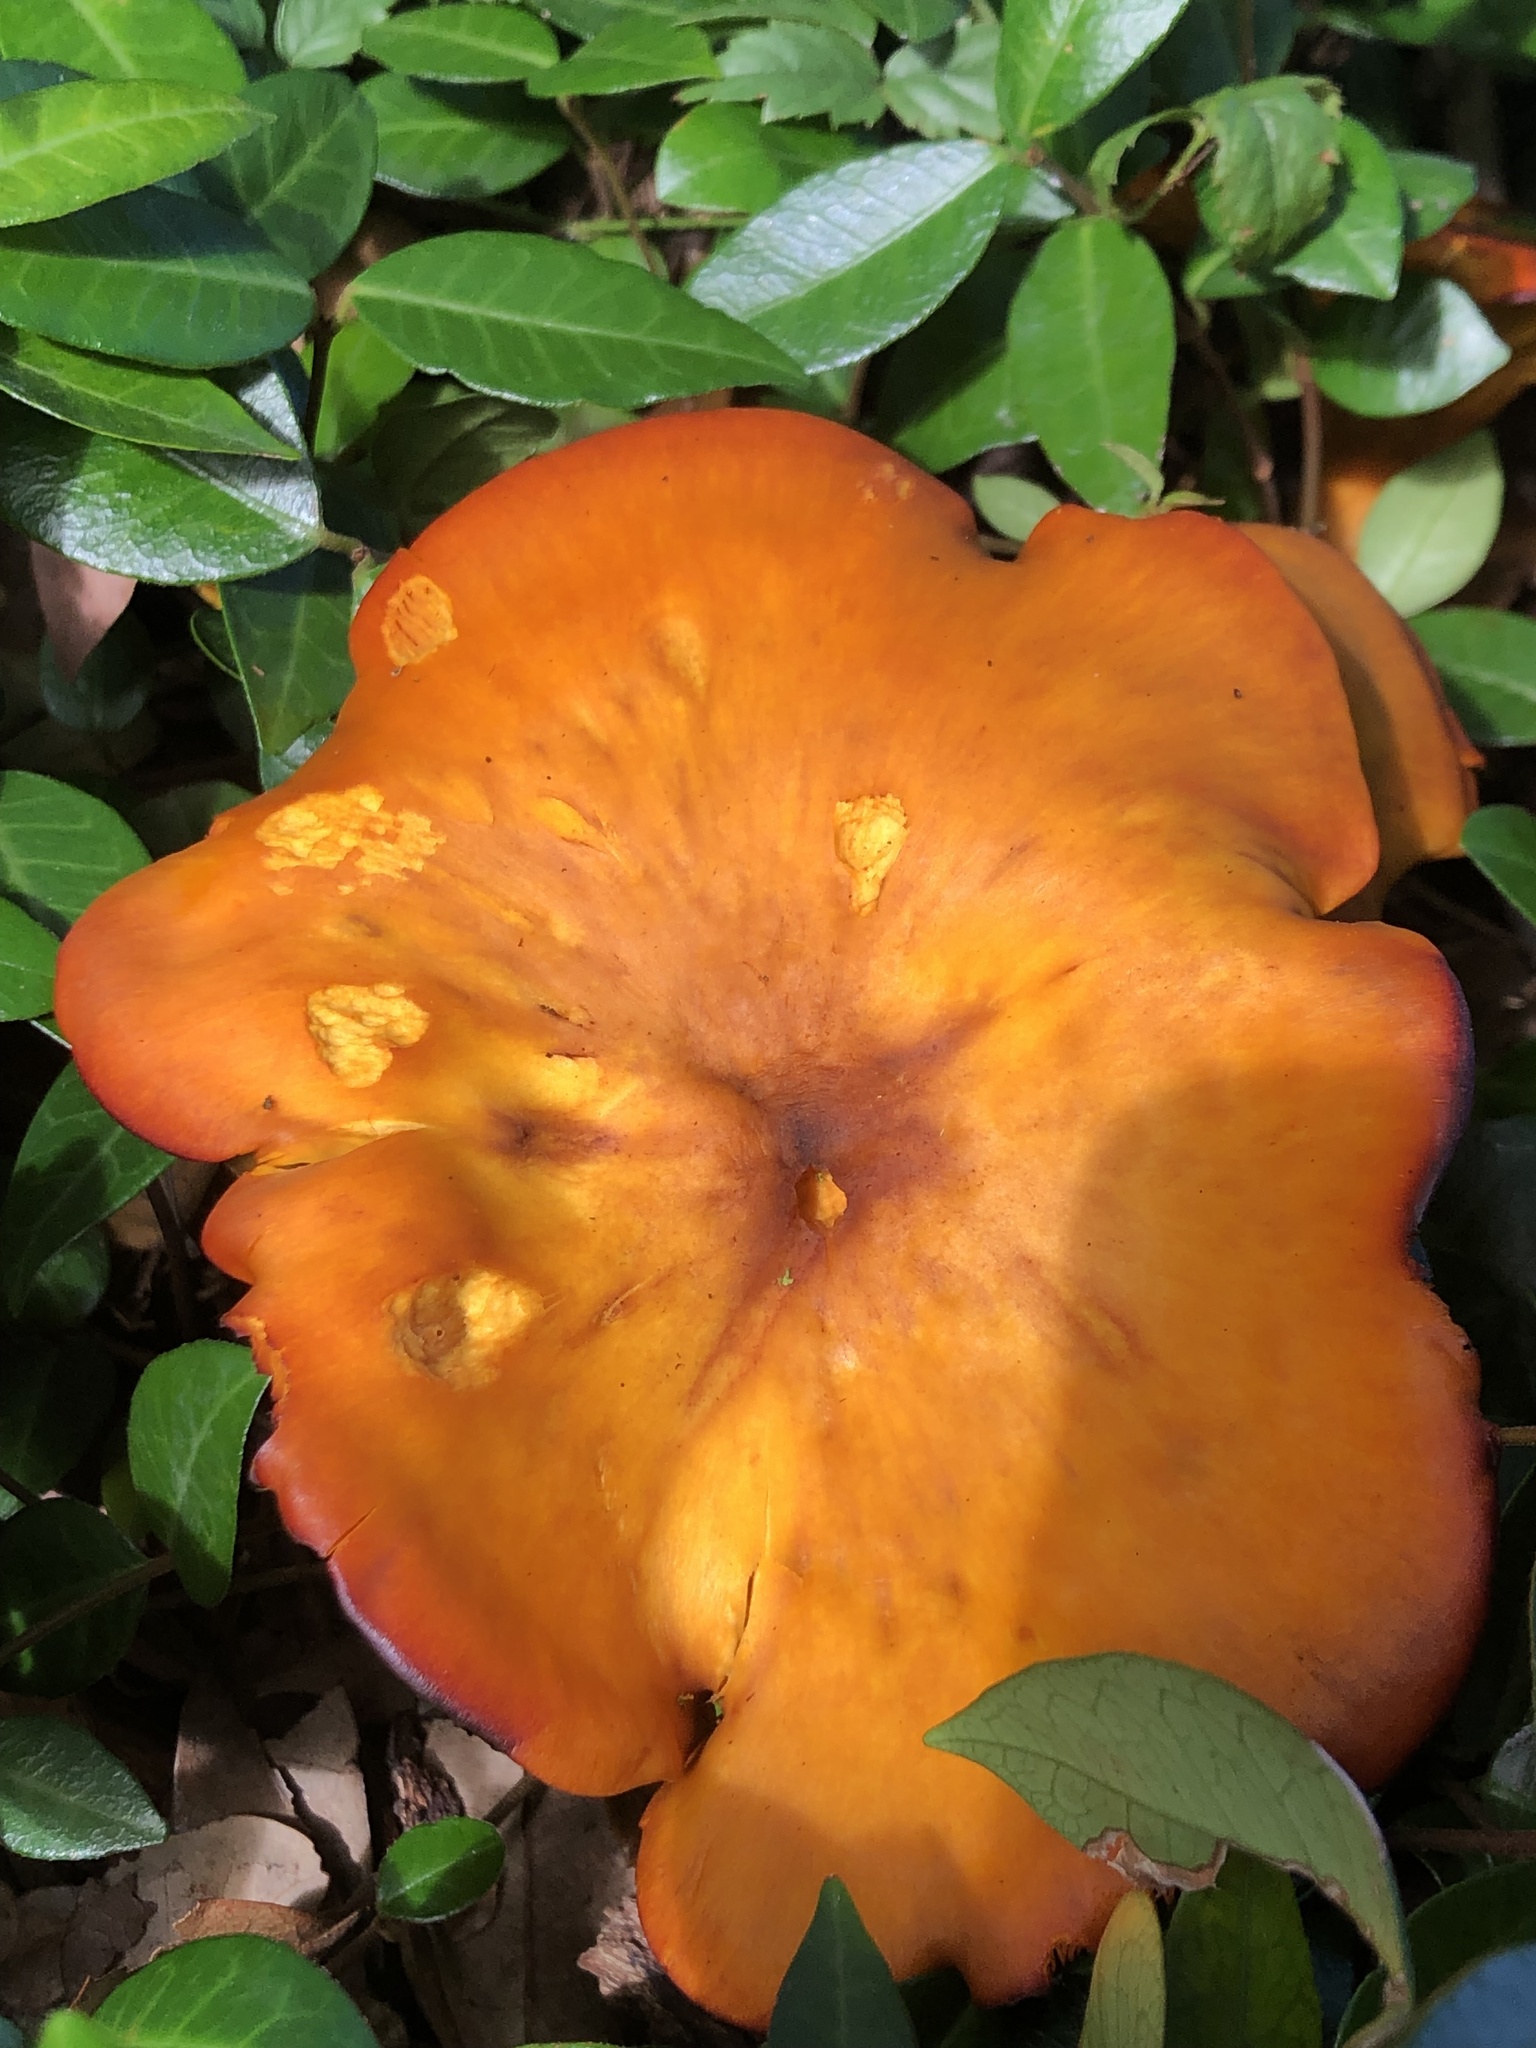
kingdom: Fungi
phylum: Basidiomycota
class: Agaricomycetes
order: Agaricales
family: Omphalotaceae
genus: Omphalotus
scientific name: Omphalotus subilludens
